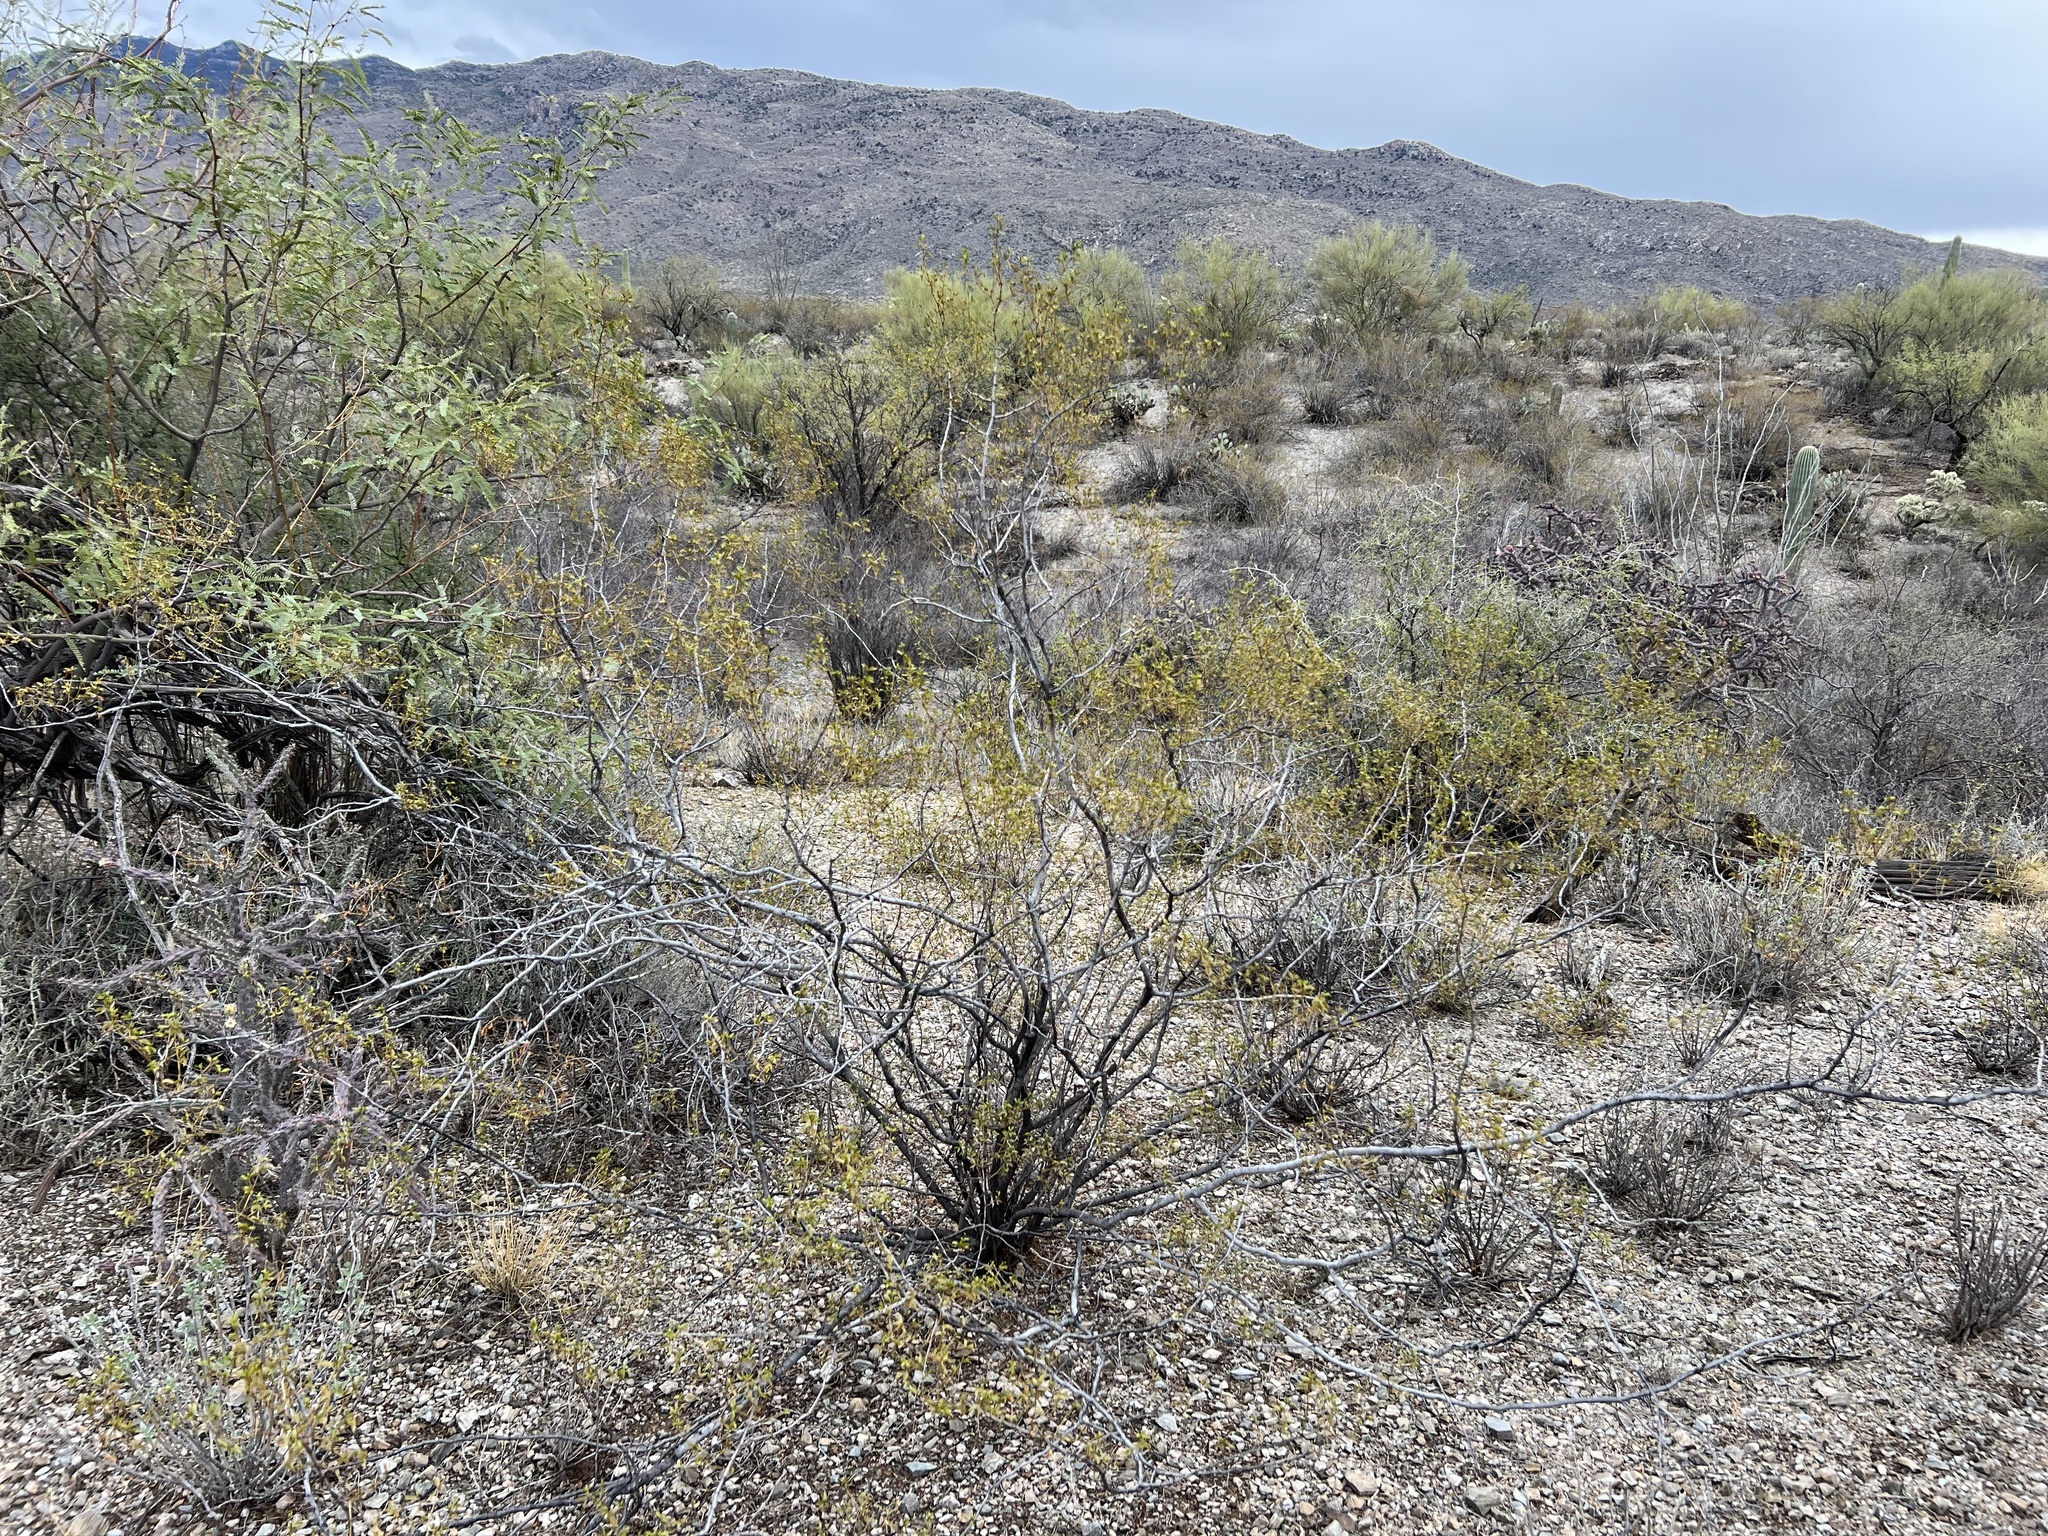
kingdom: Plantae
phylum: Tracheophyta
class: Magnoliopsida
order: Zygophyllales
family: Zygophyllaceae
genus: Larrea
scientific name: Larrea tridentata
